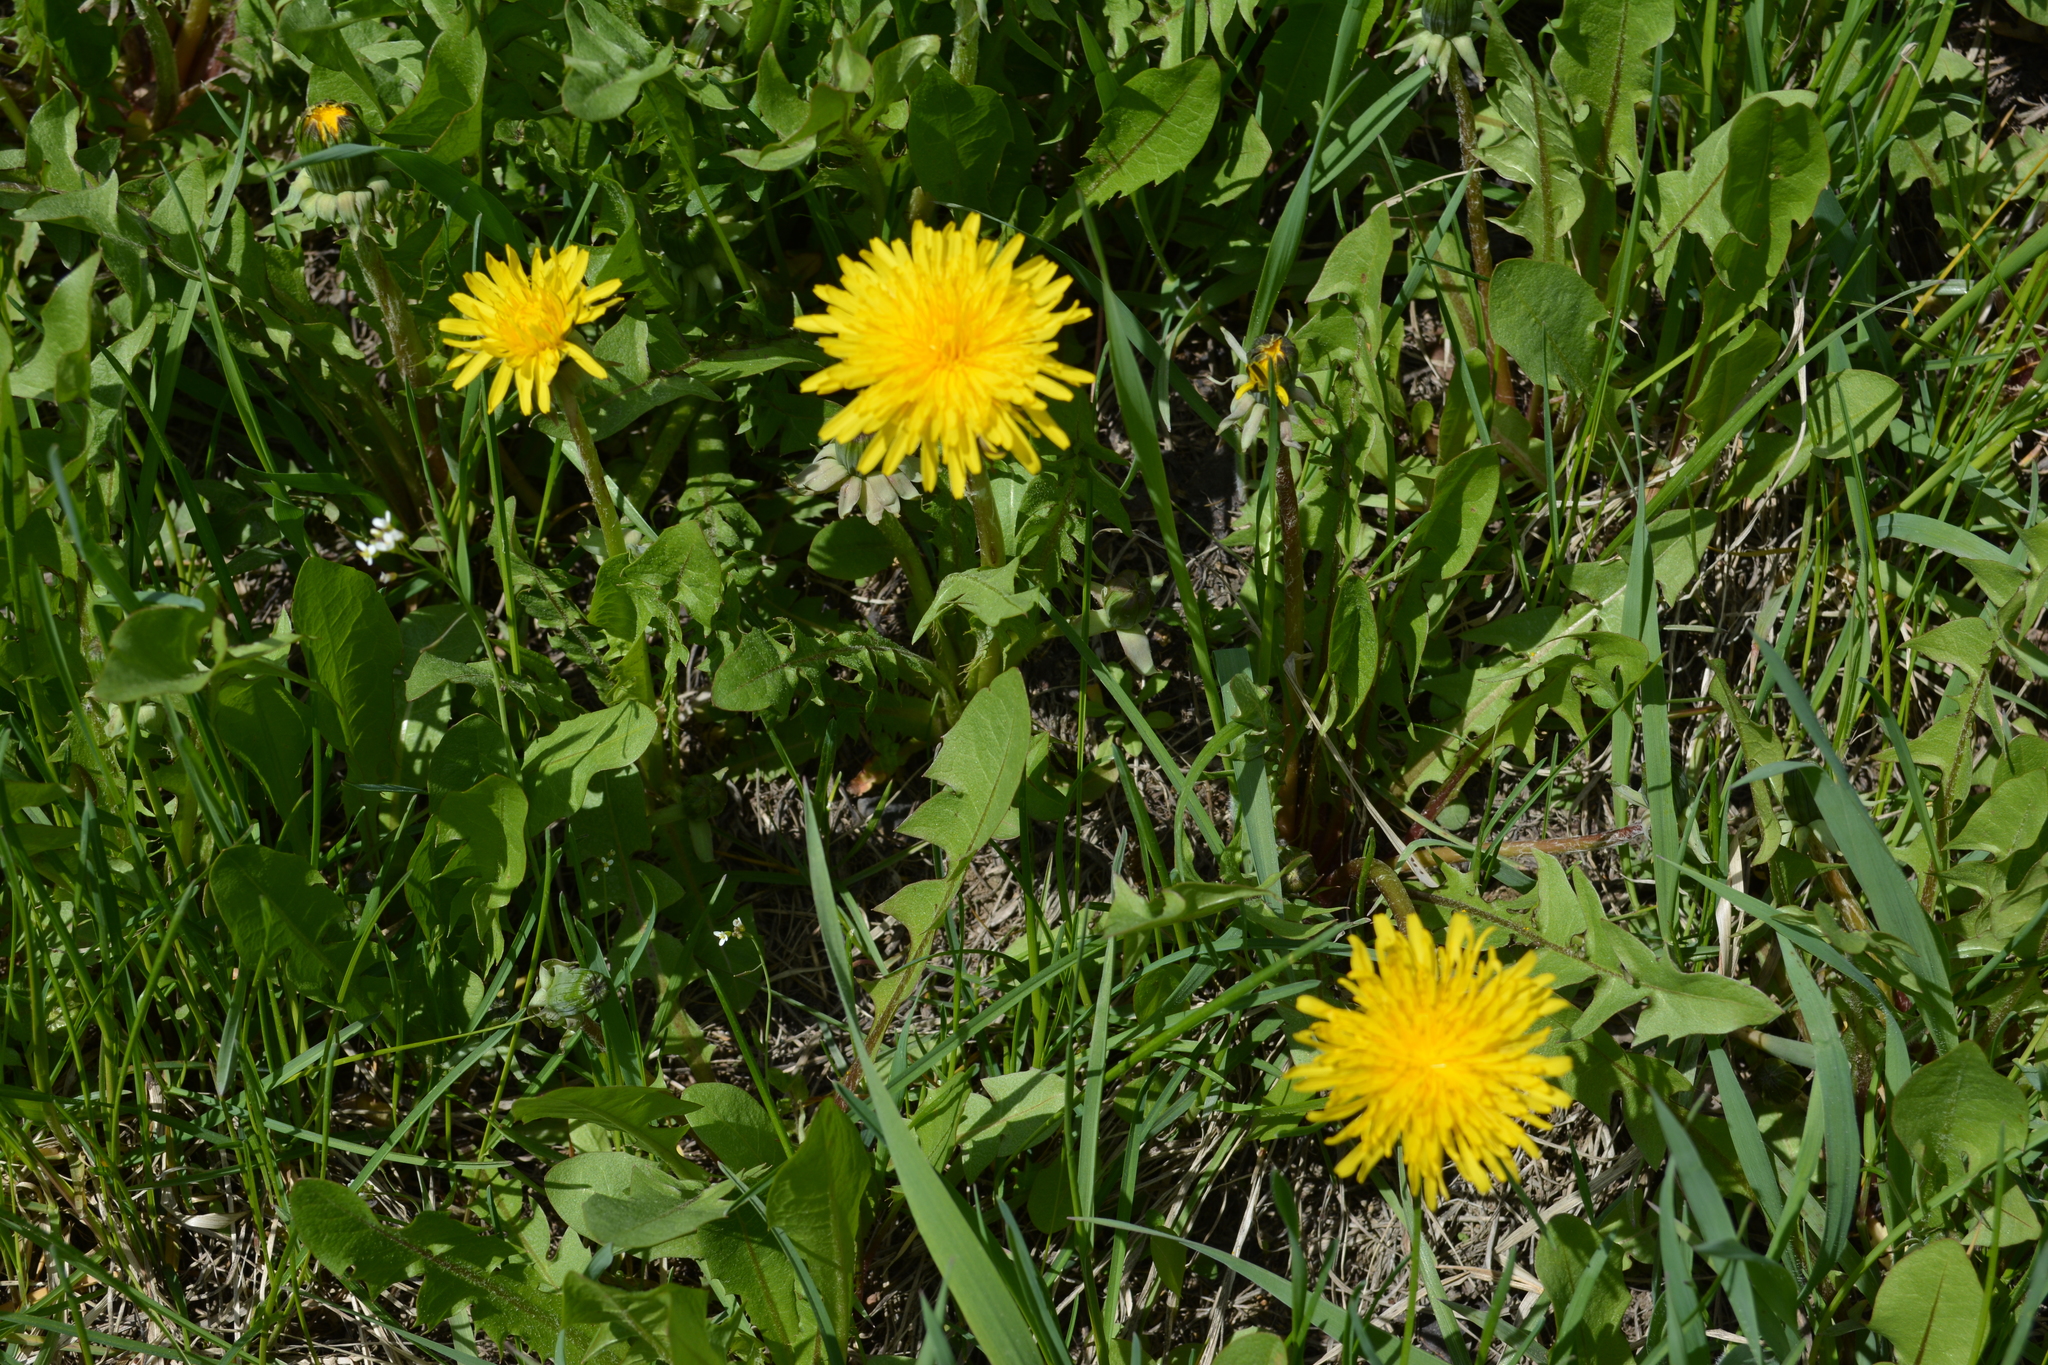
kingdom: Plantae
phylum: Tracheophyta
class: Magnoliopsida
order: Asterales
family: Asteraceae
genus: Taraxacum
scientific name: Taraxacum officinale
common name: Common dandelion
